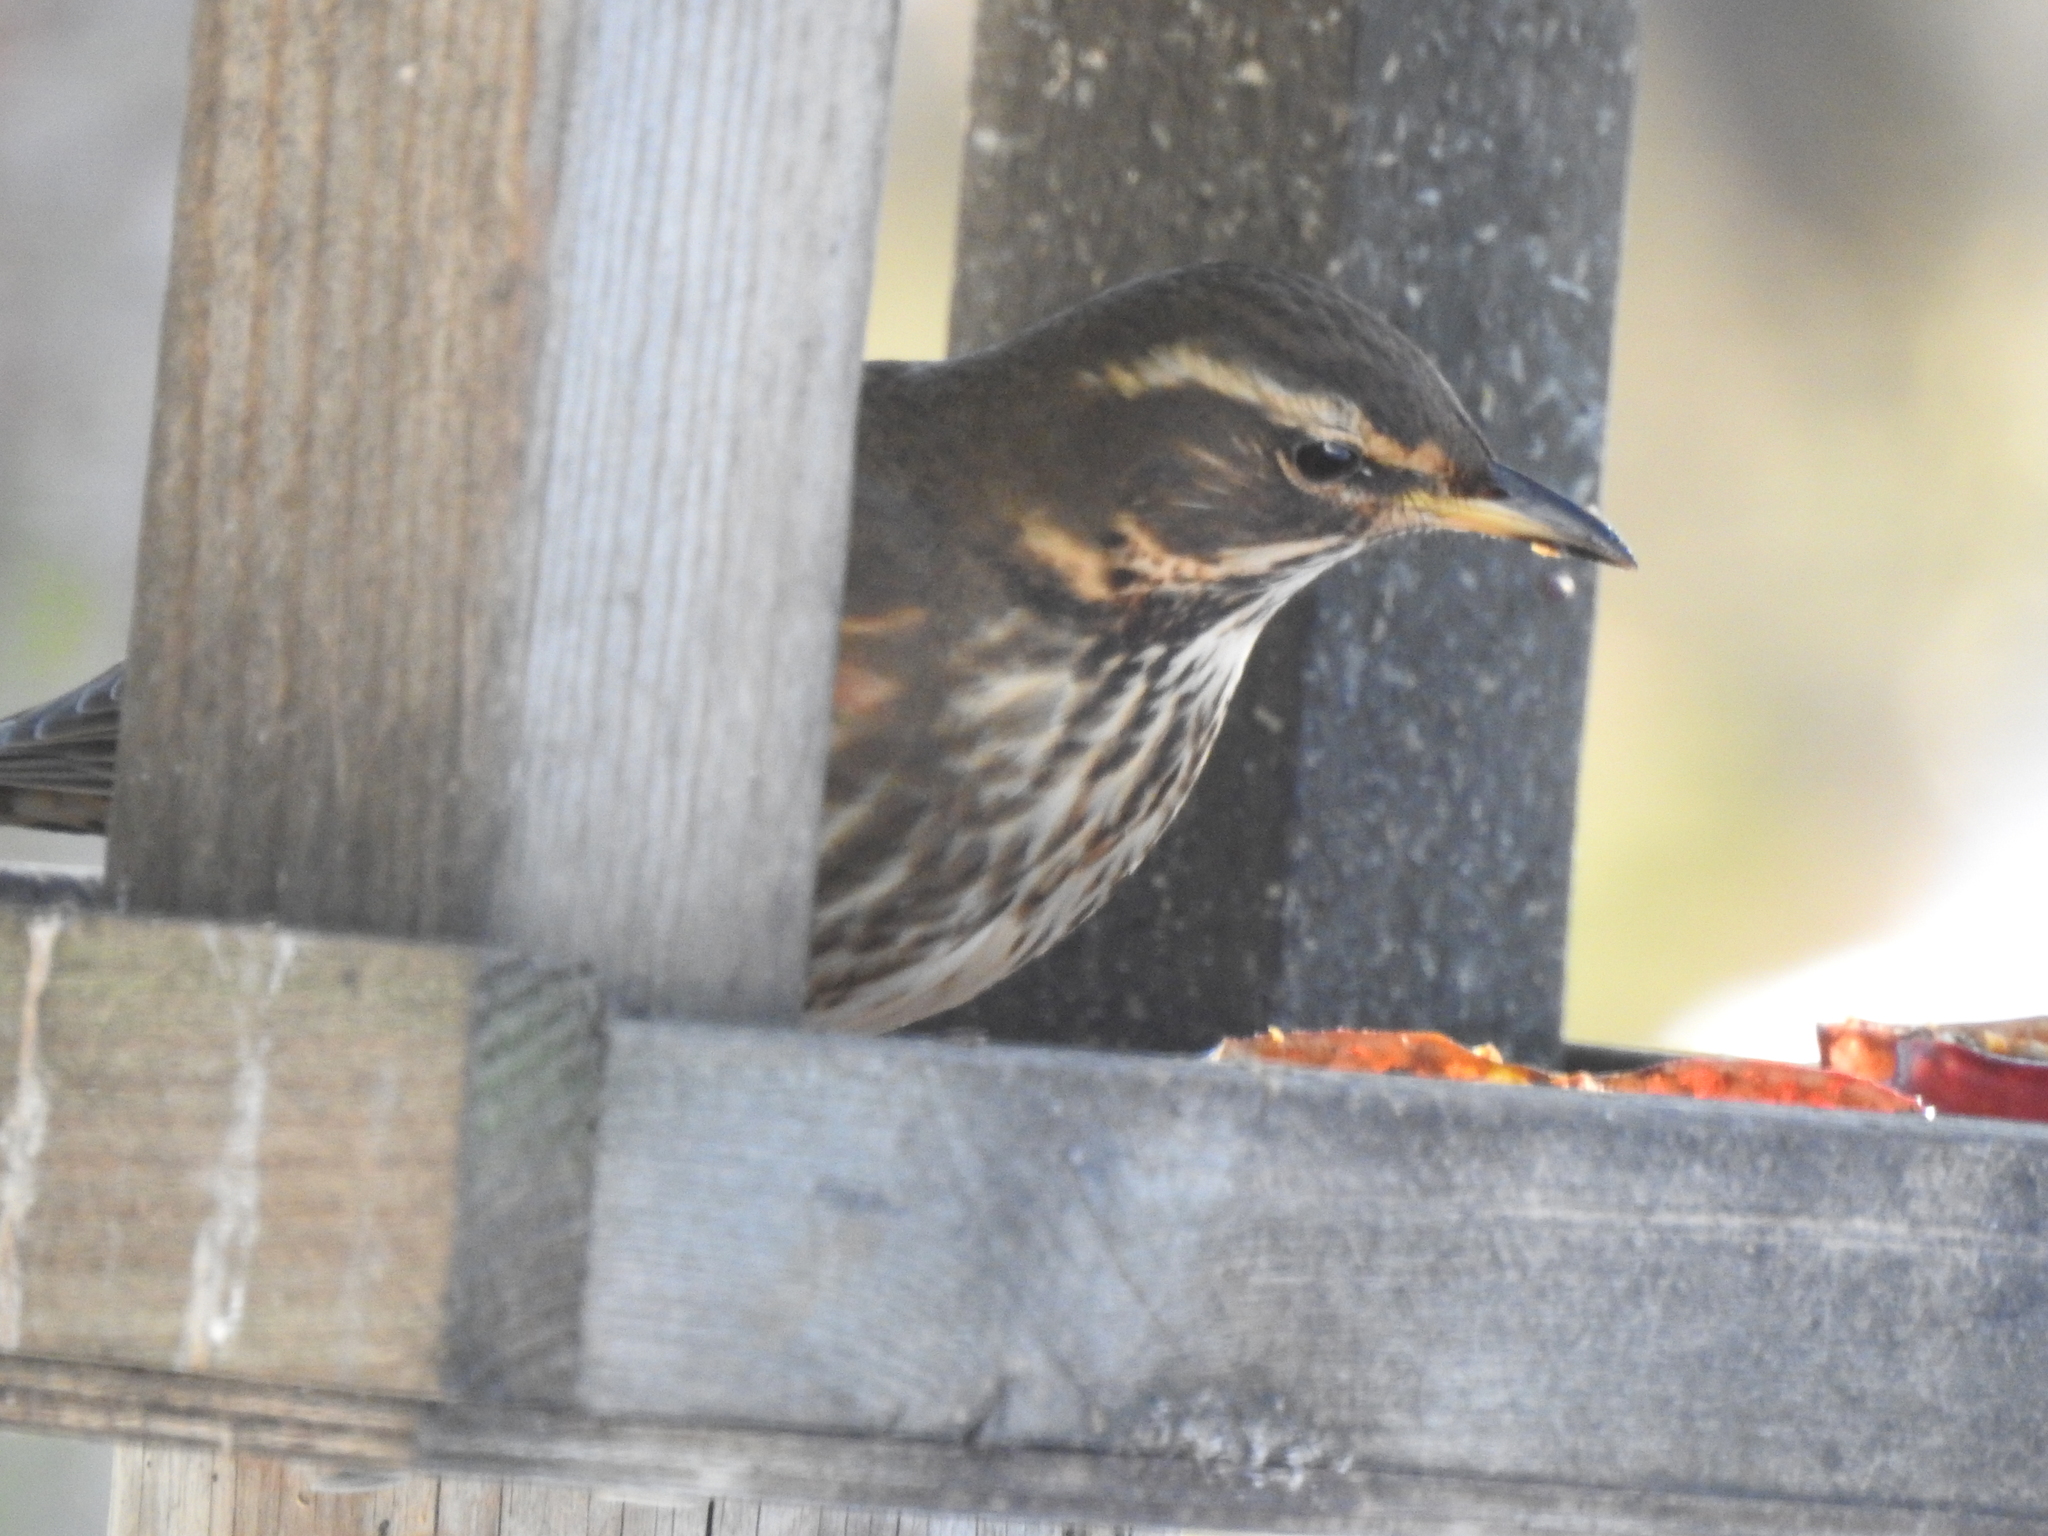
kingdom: Animalia
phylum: Chordata
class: Aves
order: Passeriformes
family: Turdidae
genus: Turdus
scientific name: Turdus iliacus
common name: Redwing
